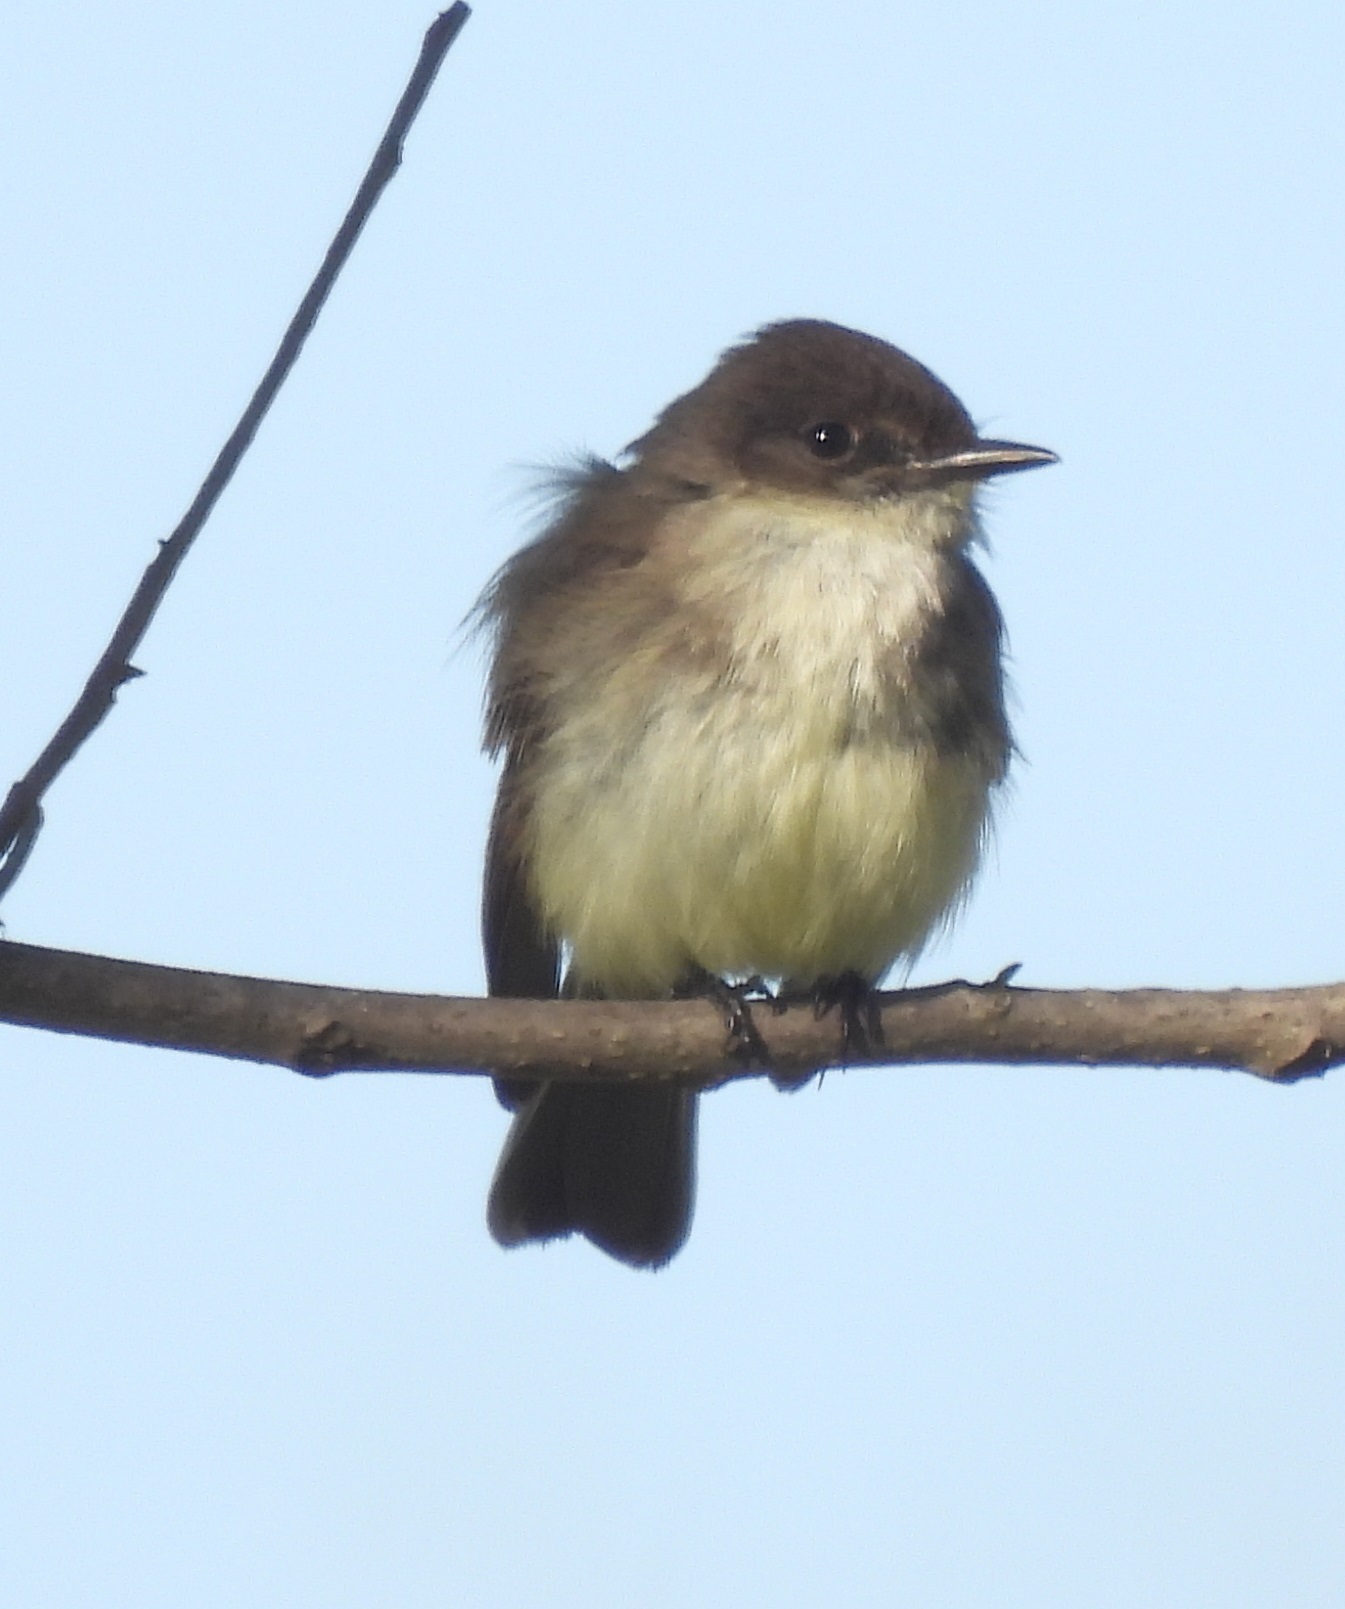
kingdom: Animalia
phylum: Chordata
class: Aves
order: Passeriformes
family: Tyrannidae
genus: Sayornis
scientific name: Sayornis phoebe
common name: Eastern phoebe
